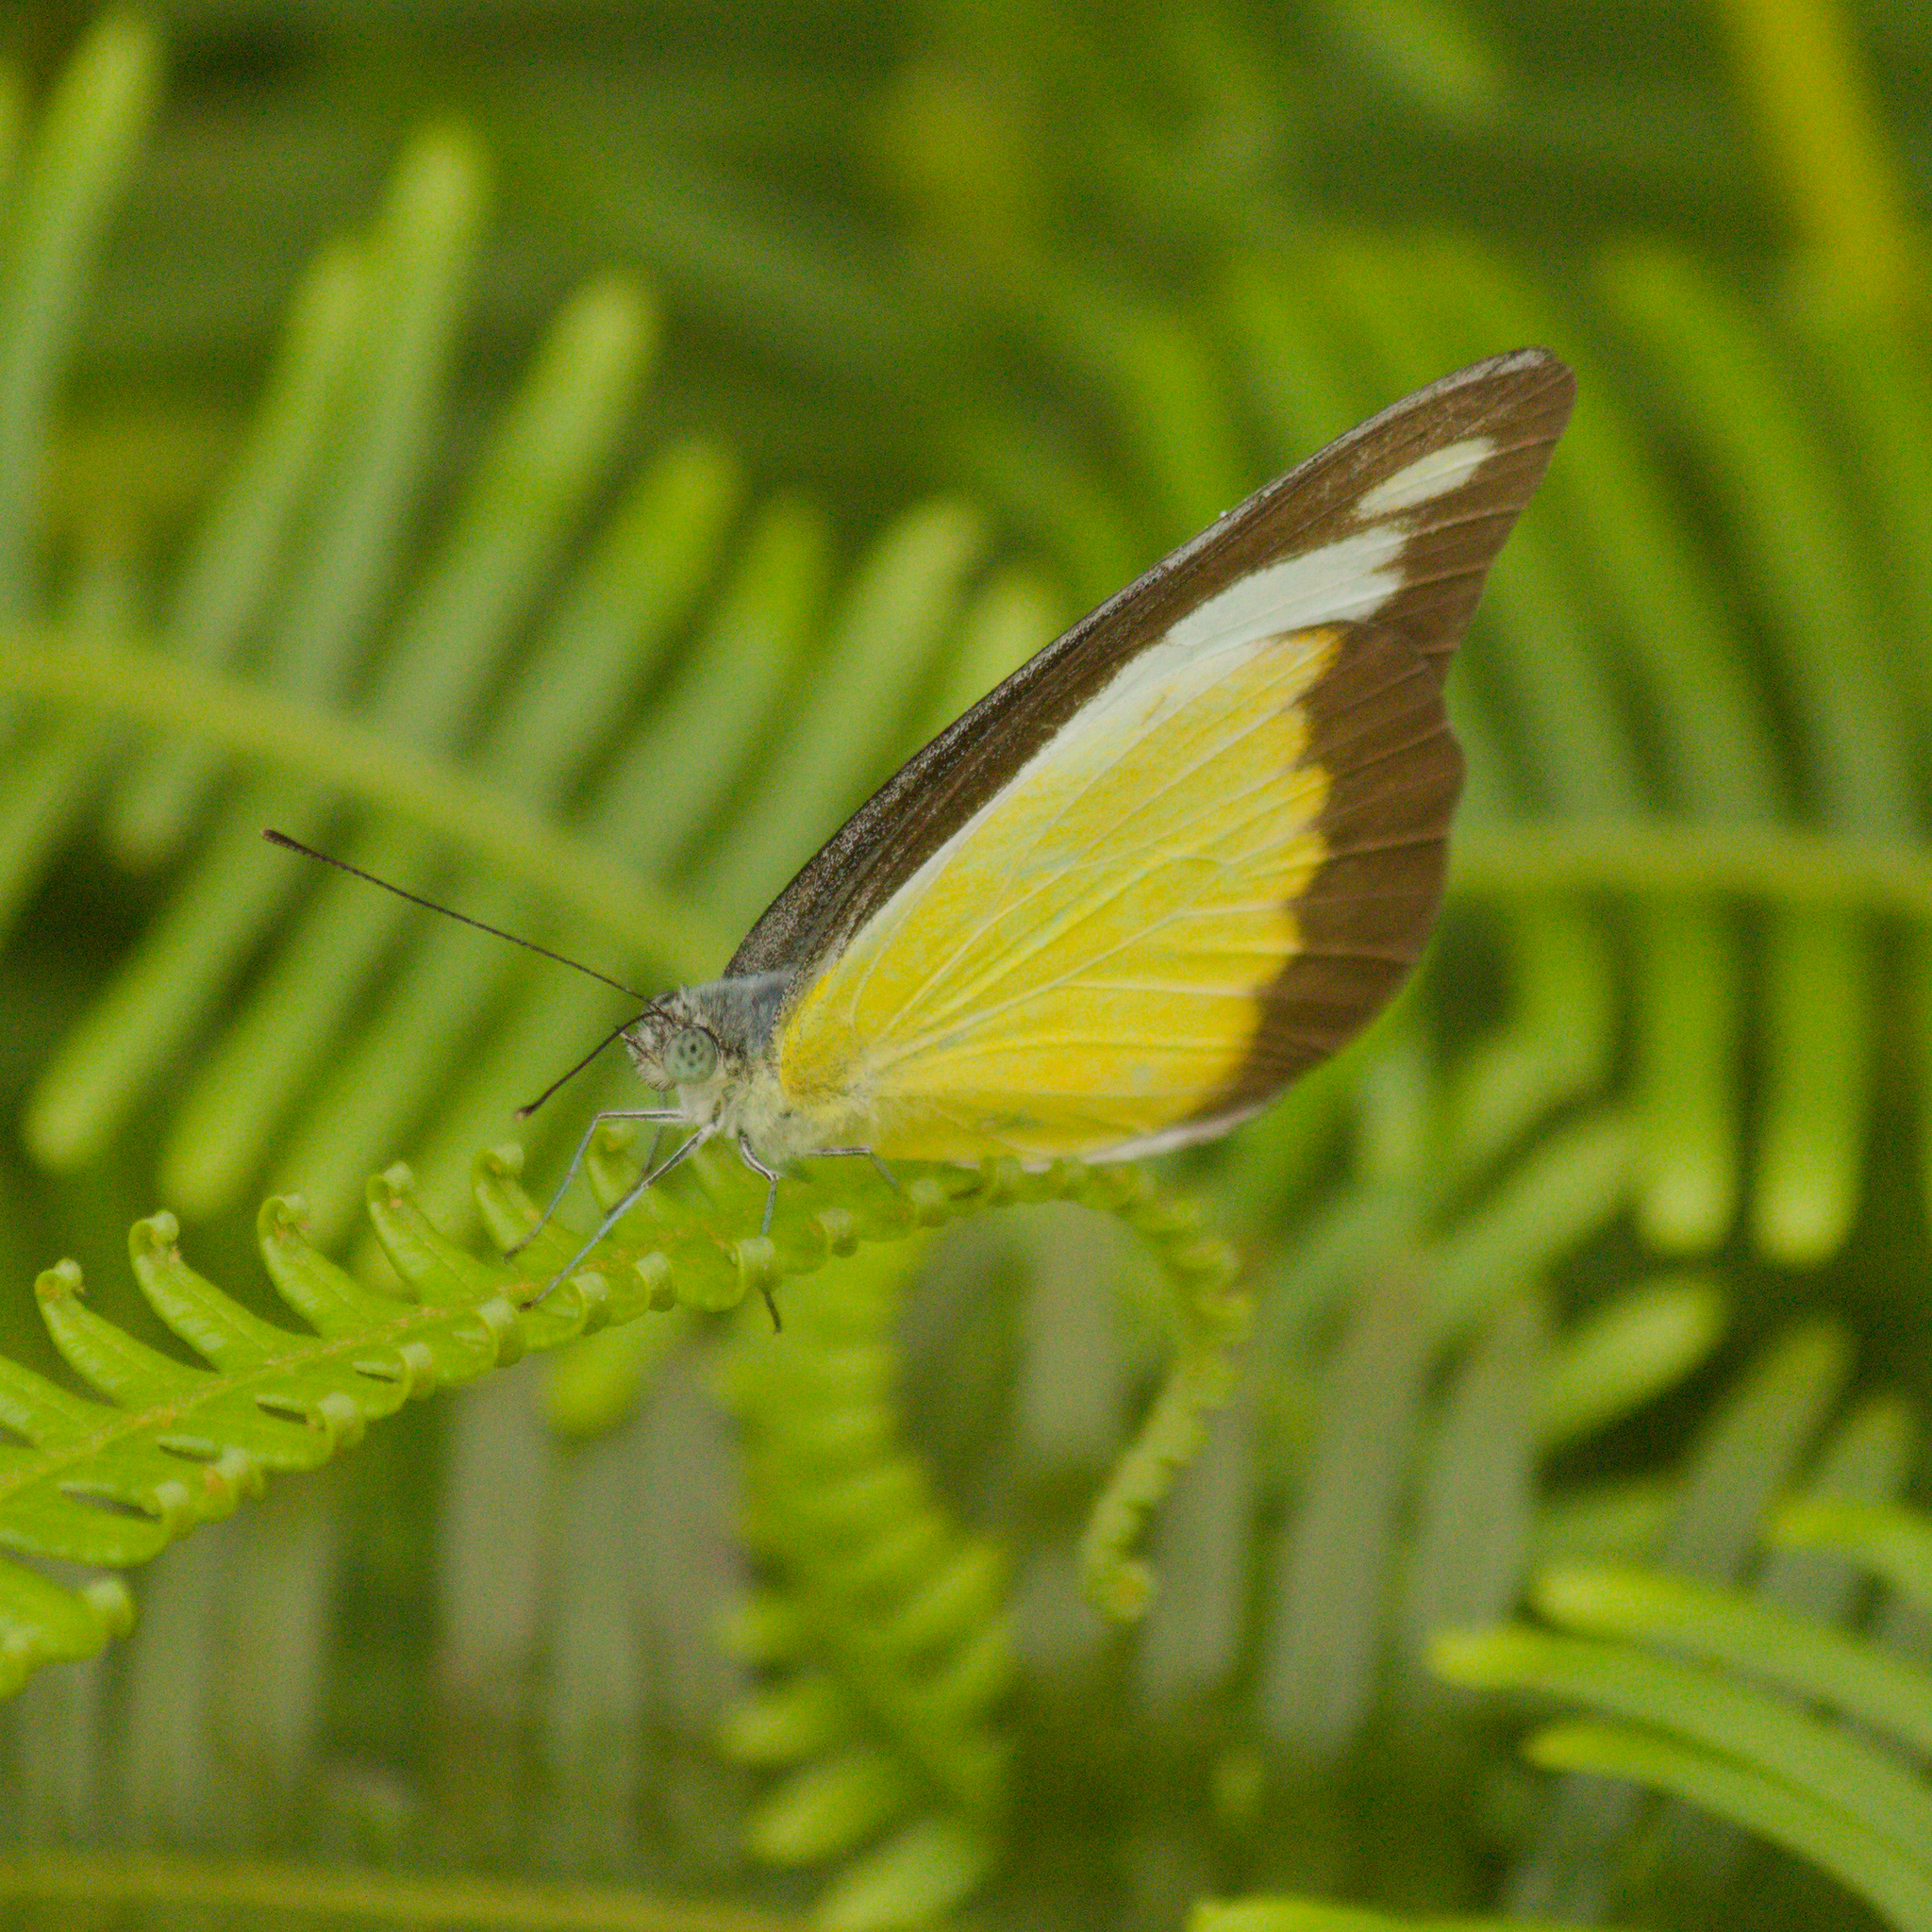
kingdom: Animalia
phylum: Arthropoda
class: Insecta
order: Lepidoptera
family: Pieridae
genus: Appias
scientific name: Appias lyncida
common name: Chocolate albatross
